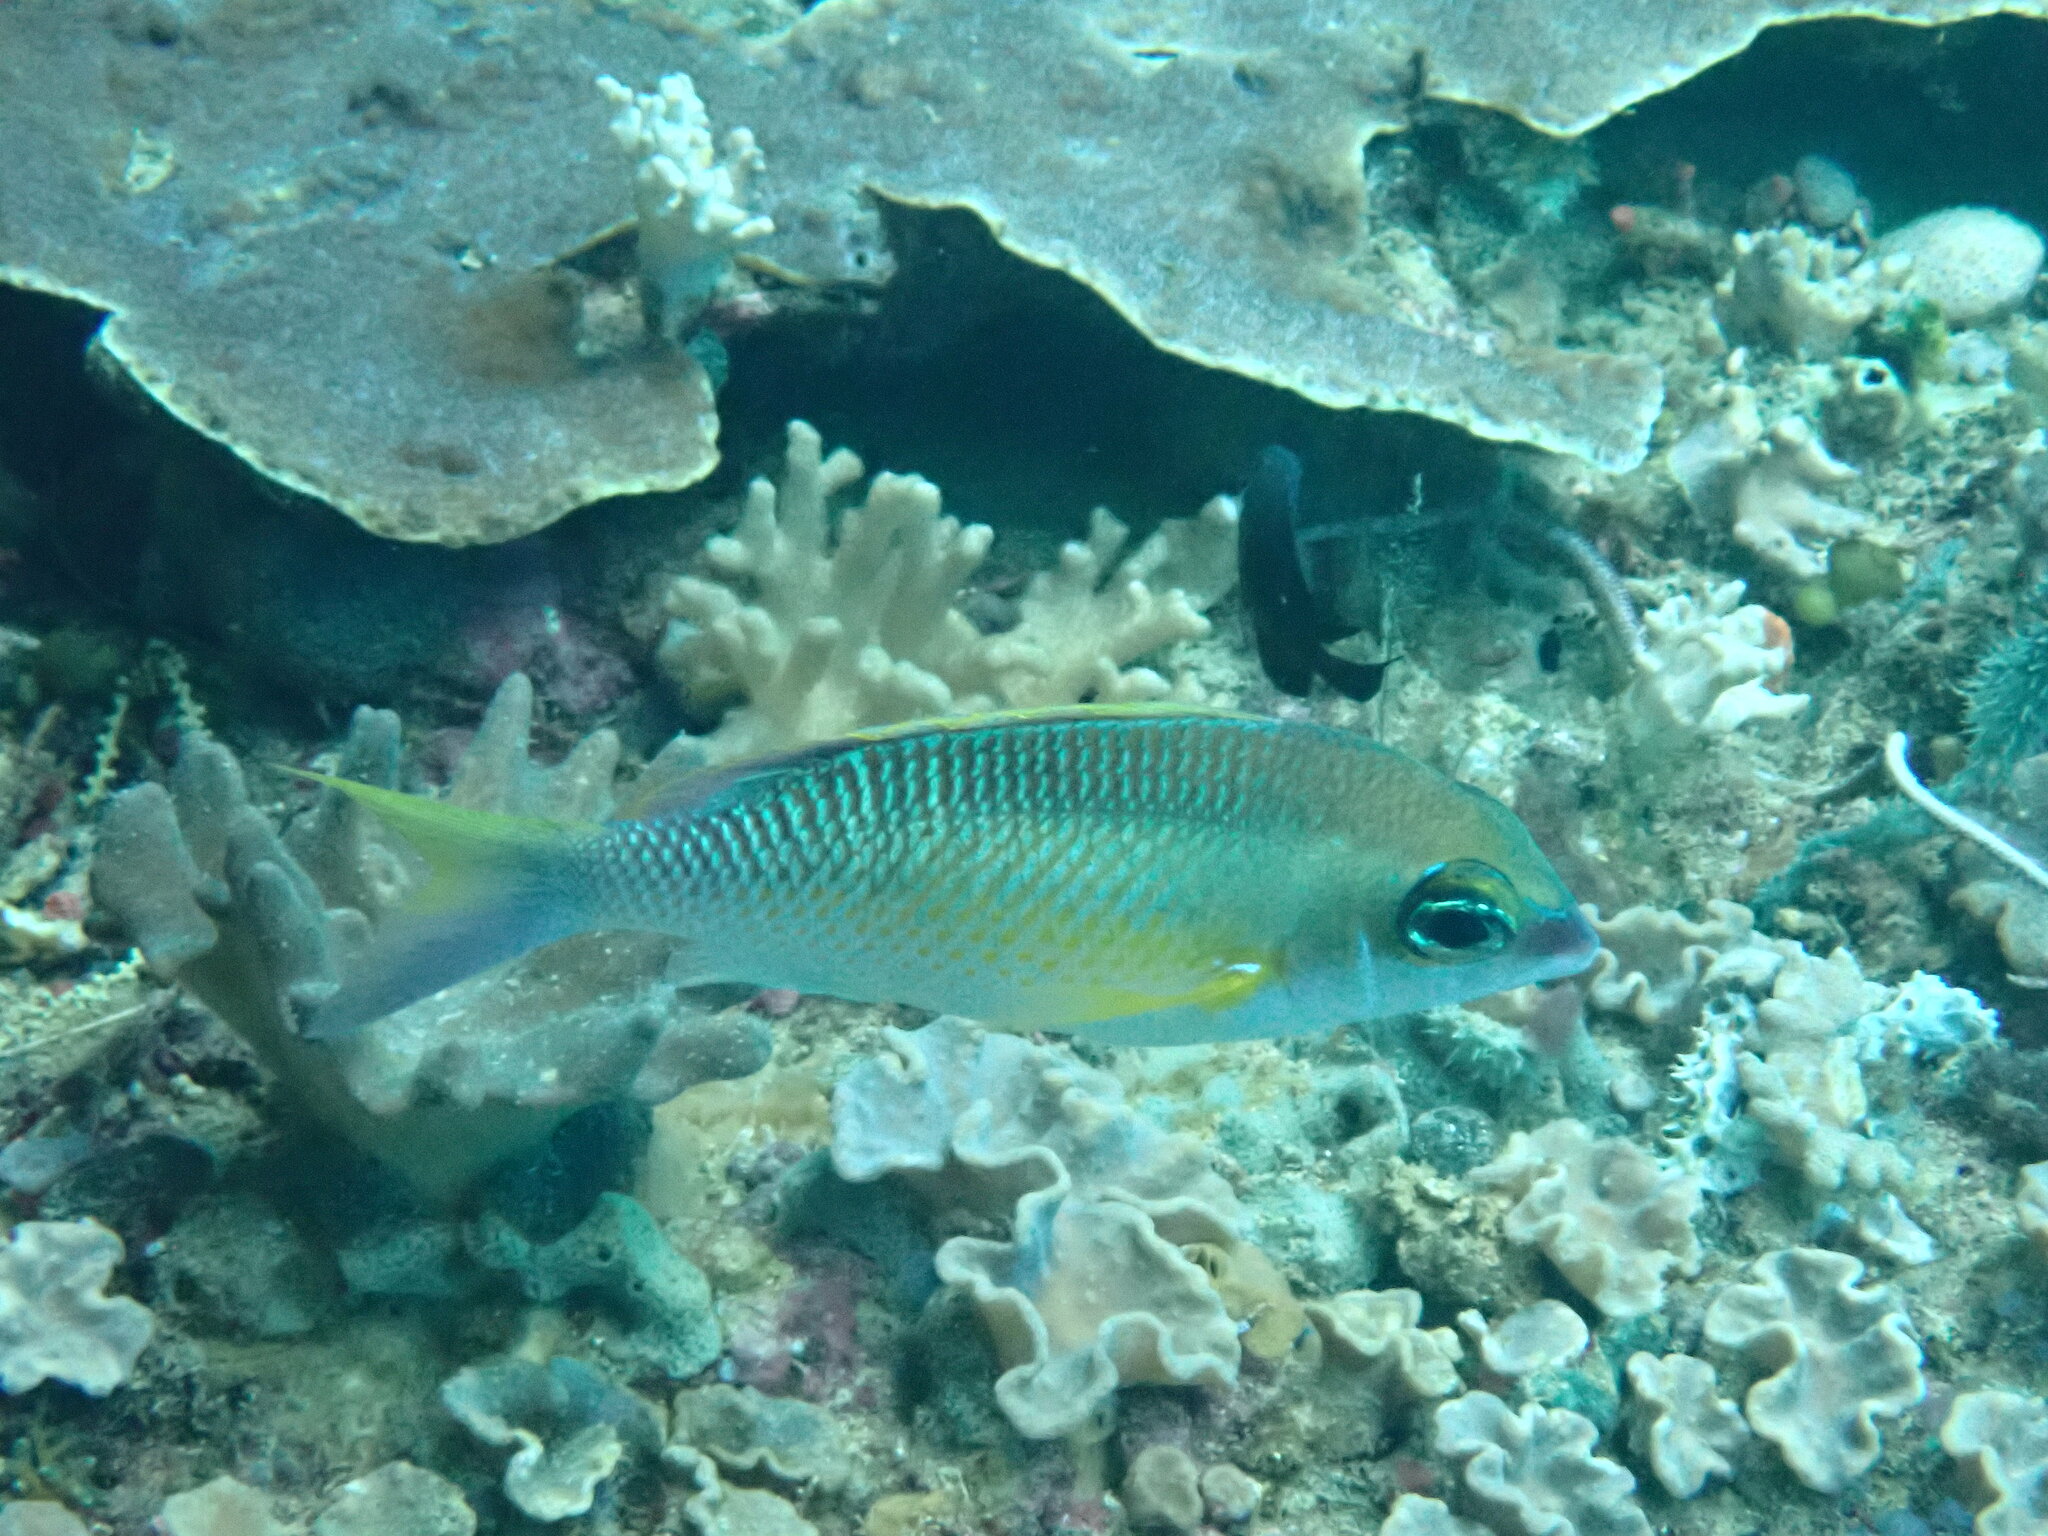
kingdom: Animalia
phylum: Chordata
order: Perciformes
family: Nemipteridae
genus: Scolopsis
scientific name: Scolopsis margaritifera
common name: Pearly monocle bream
